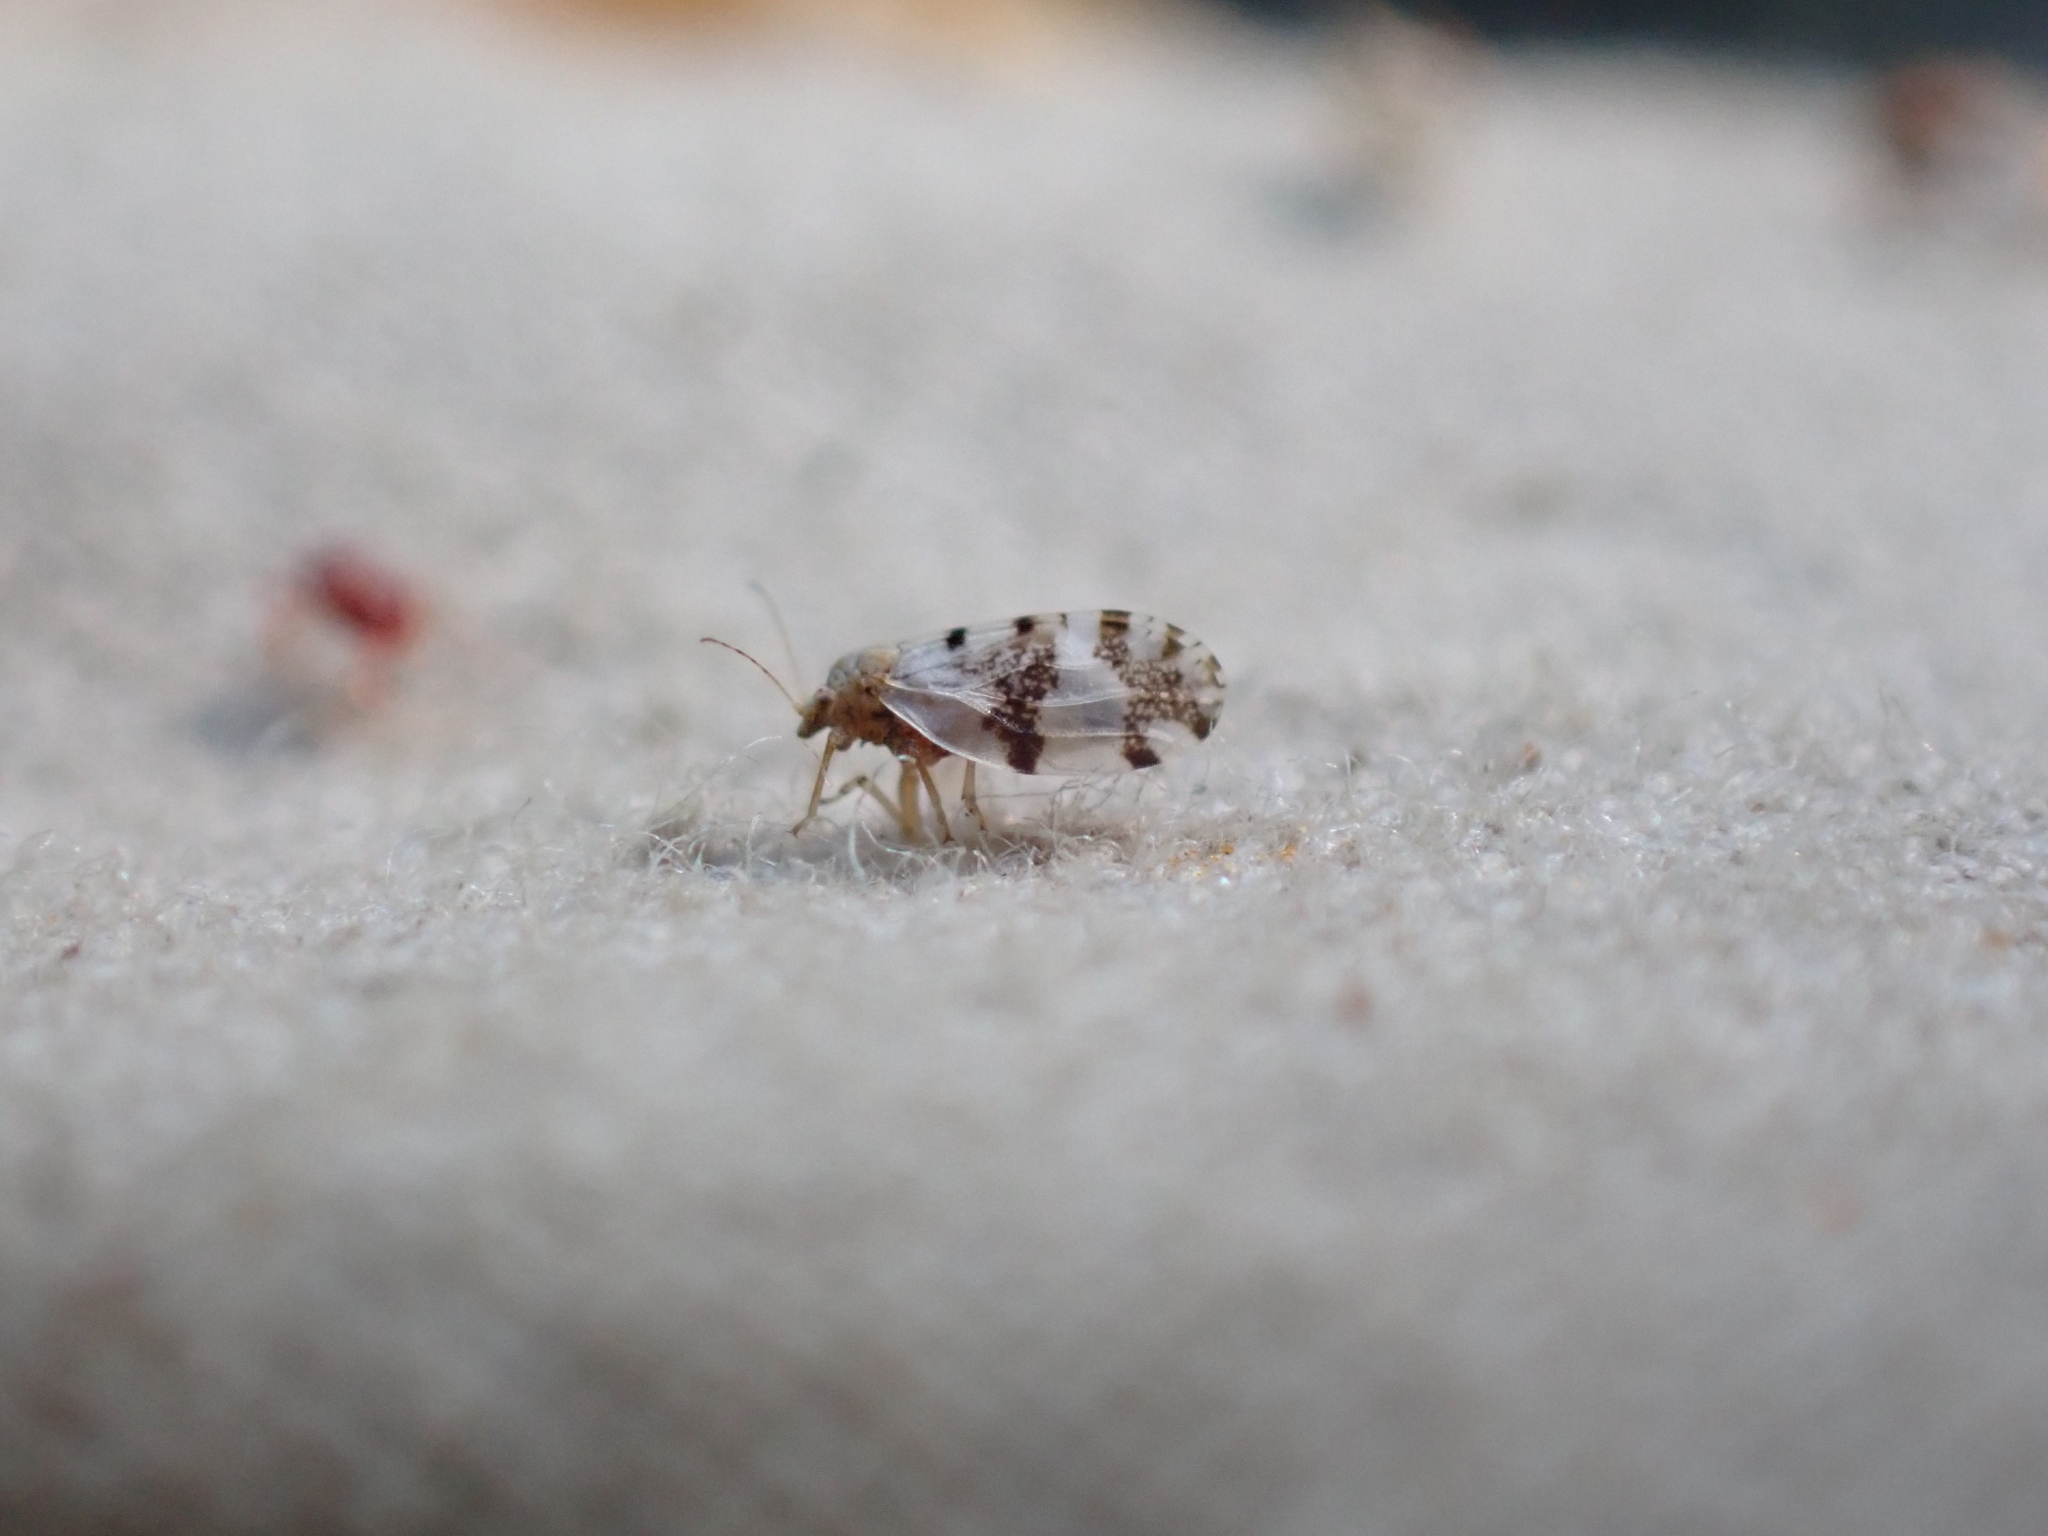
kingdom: Animalia
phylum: Arthropoda
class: Insecta
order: Hemiptera
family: Psyllidae
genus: Euglyptoneura
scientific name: Euglyptoneura robusta
